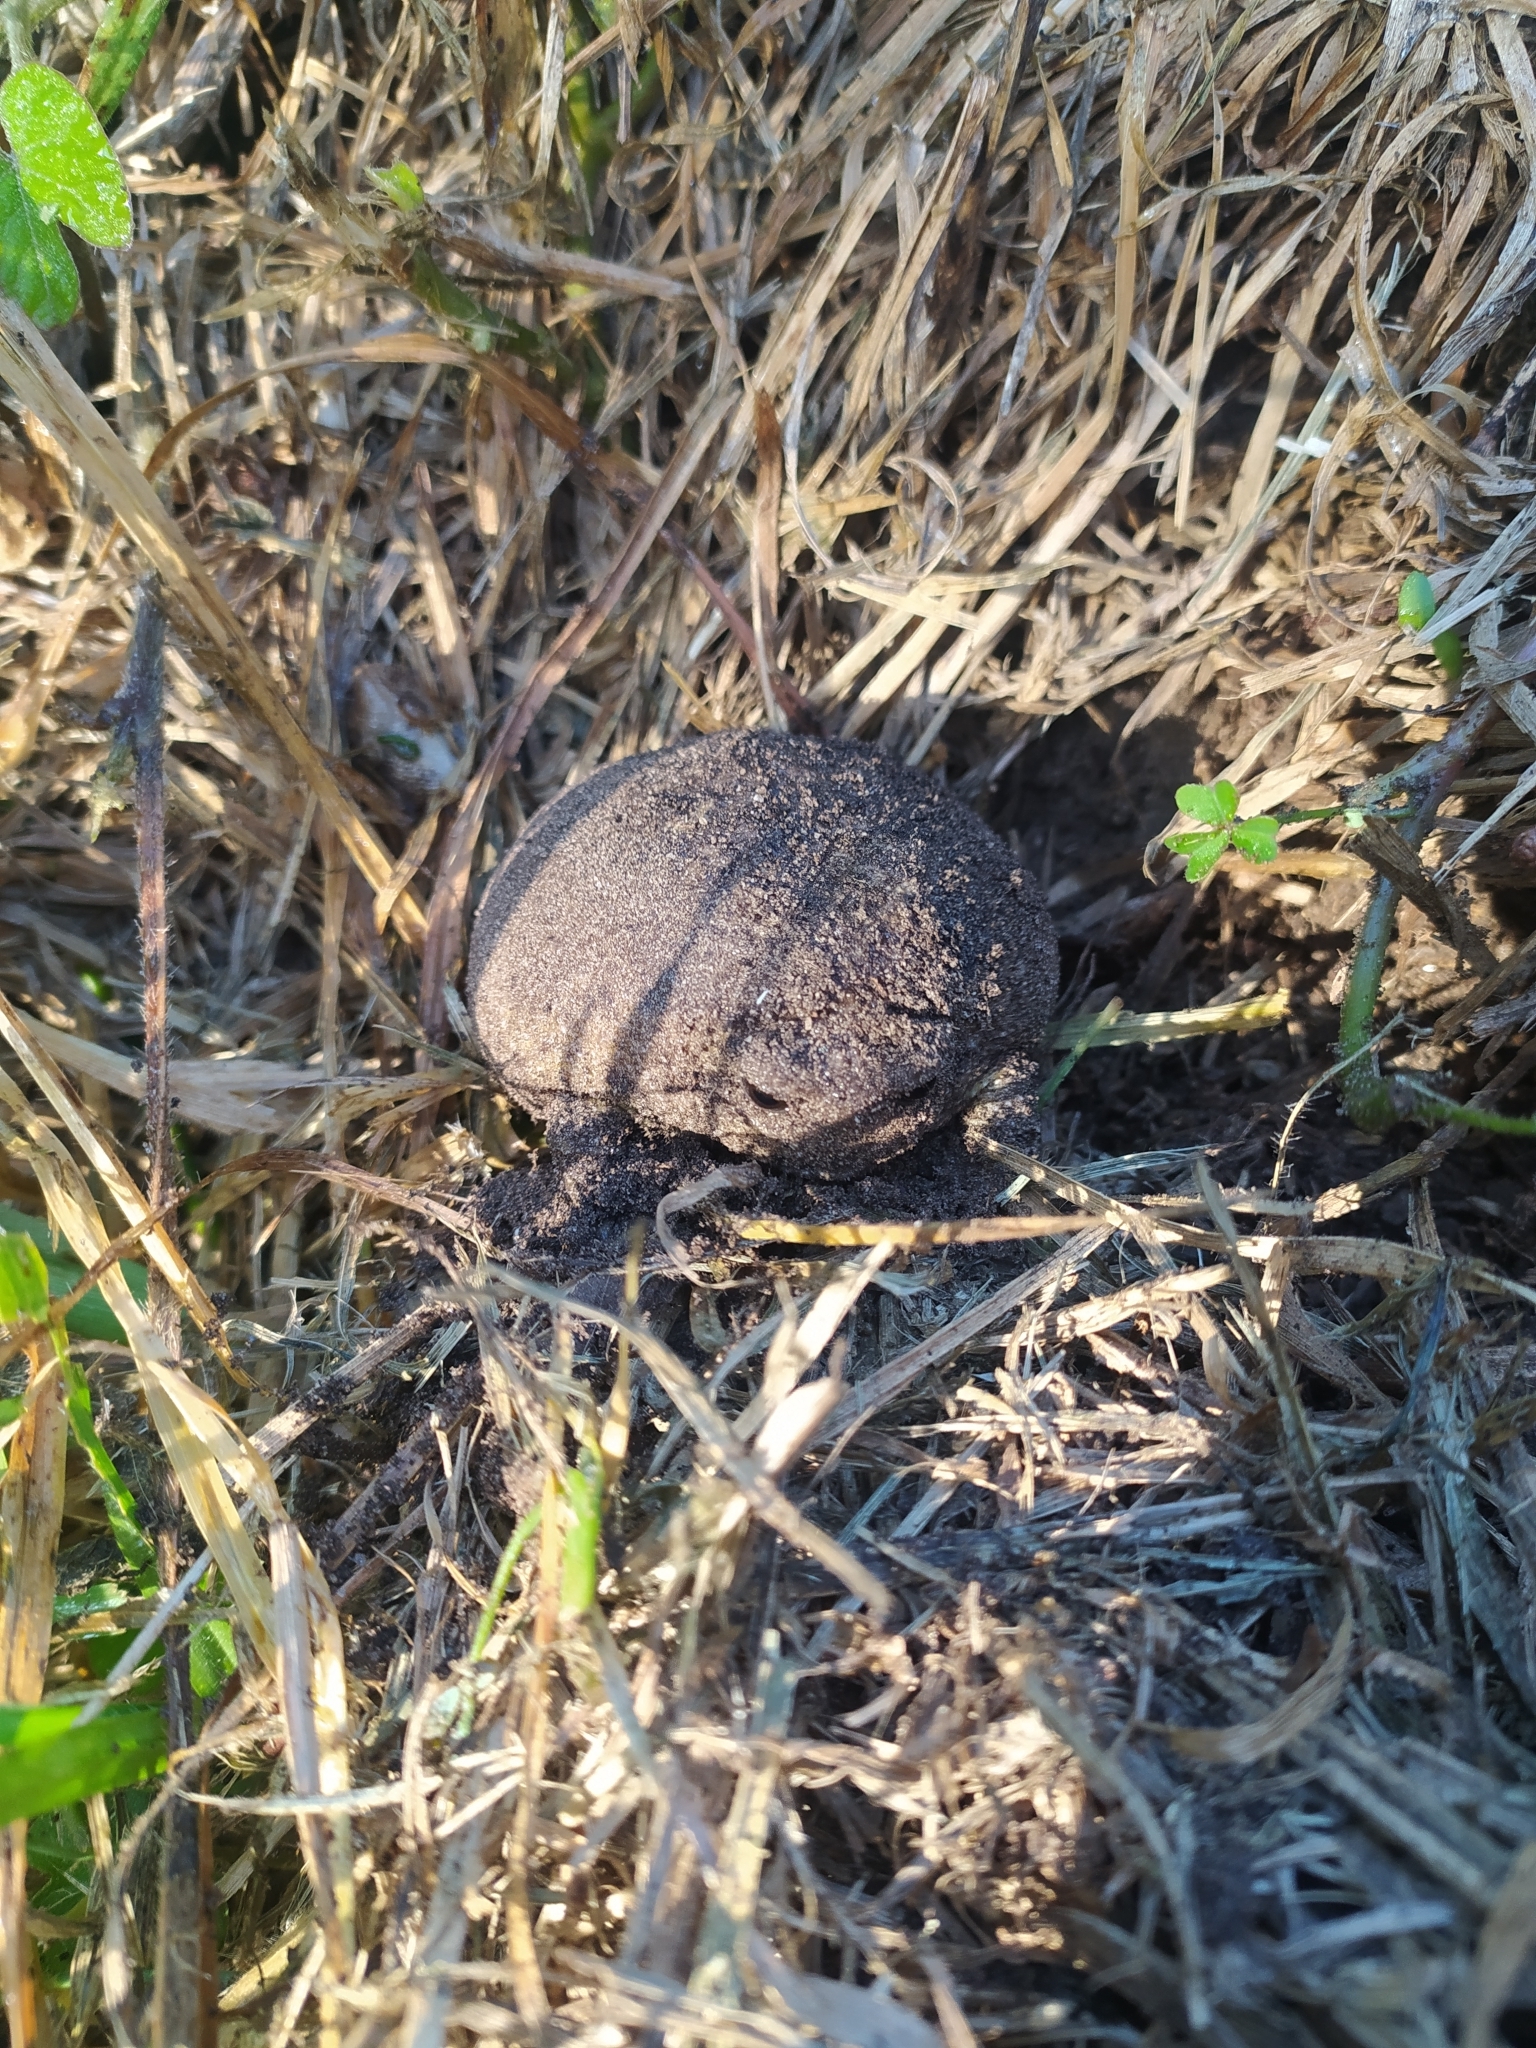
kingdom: Animalia
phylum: Chordata
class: Amphibia
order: Anura
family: Brevicipitidae
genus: Breviceps
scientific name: Breviceps gibbosus
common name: Cape rain frog
